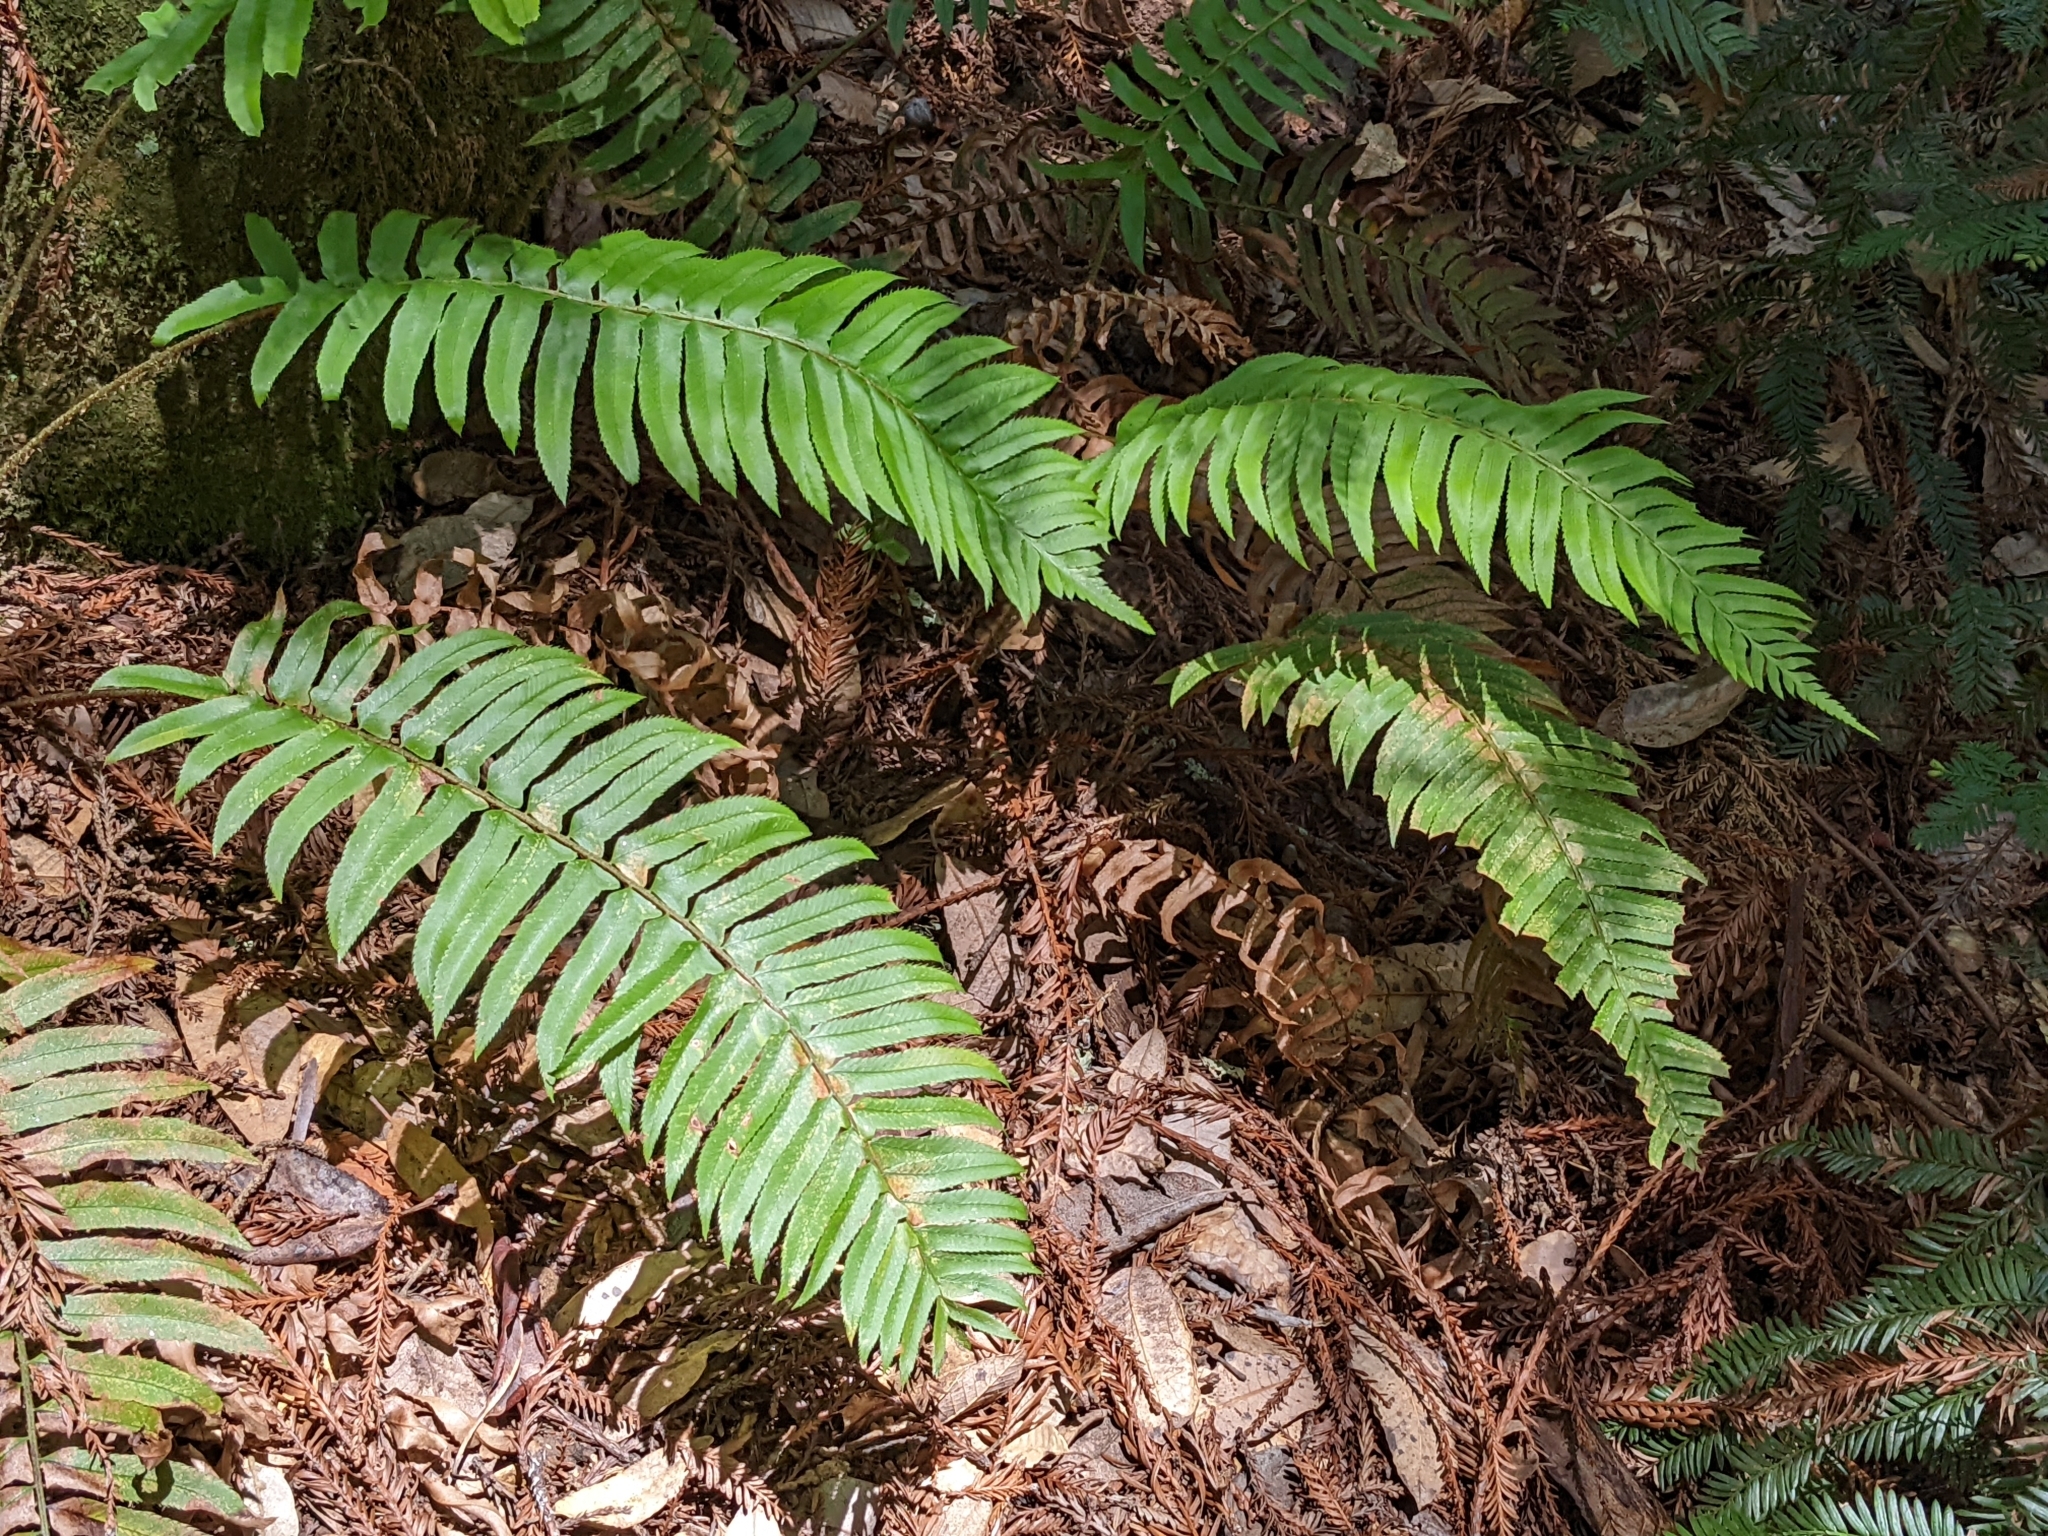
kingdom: Plantae
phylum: Tracheophyta
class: Polypodiopsida
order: Polypodiales
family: Dryopteridaceae
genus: Polystichum
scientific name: Polystichum munitum
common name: Western sword-fern
